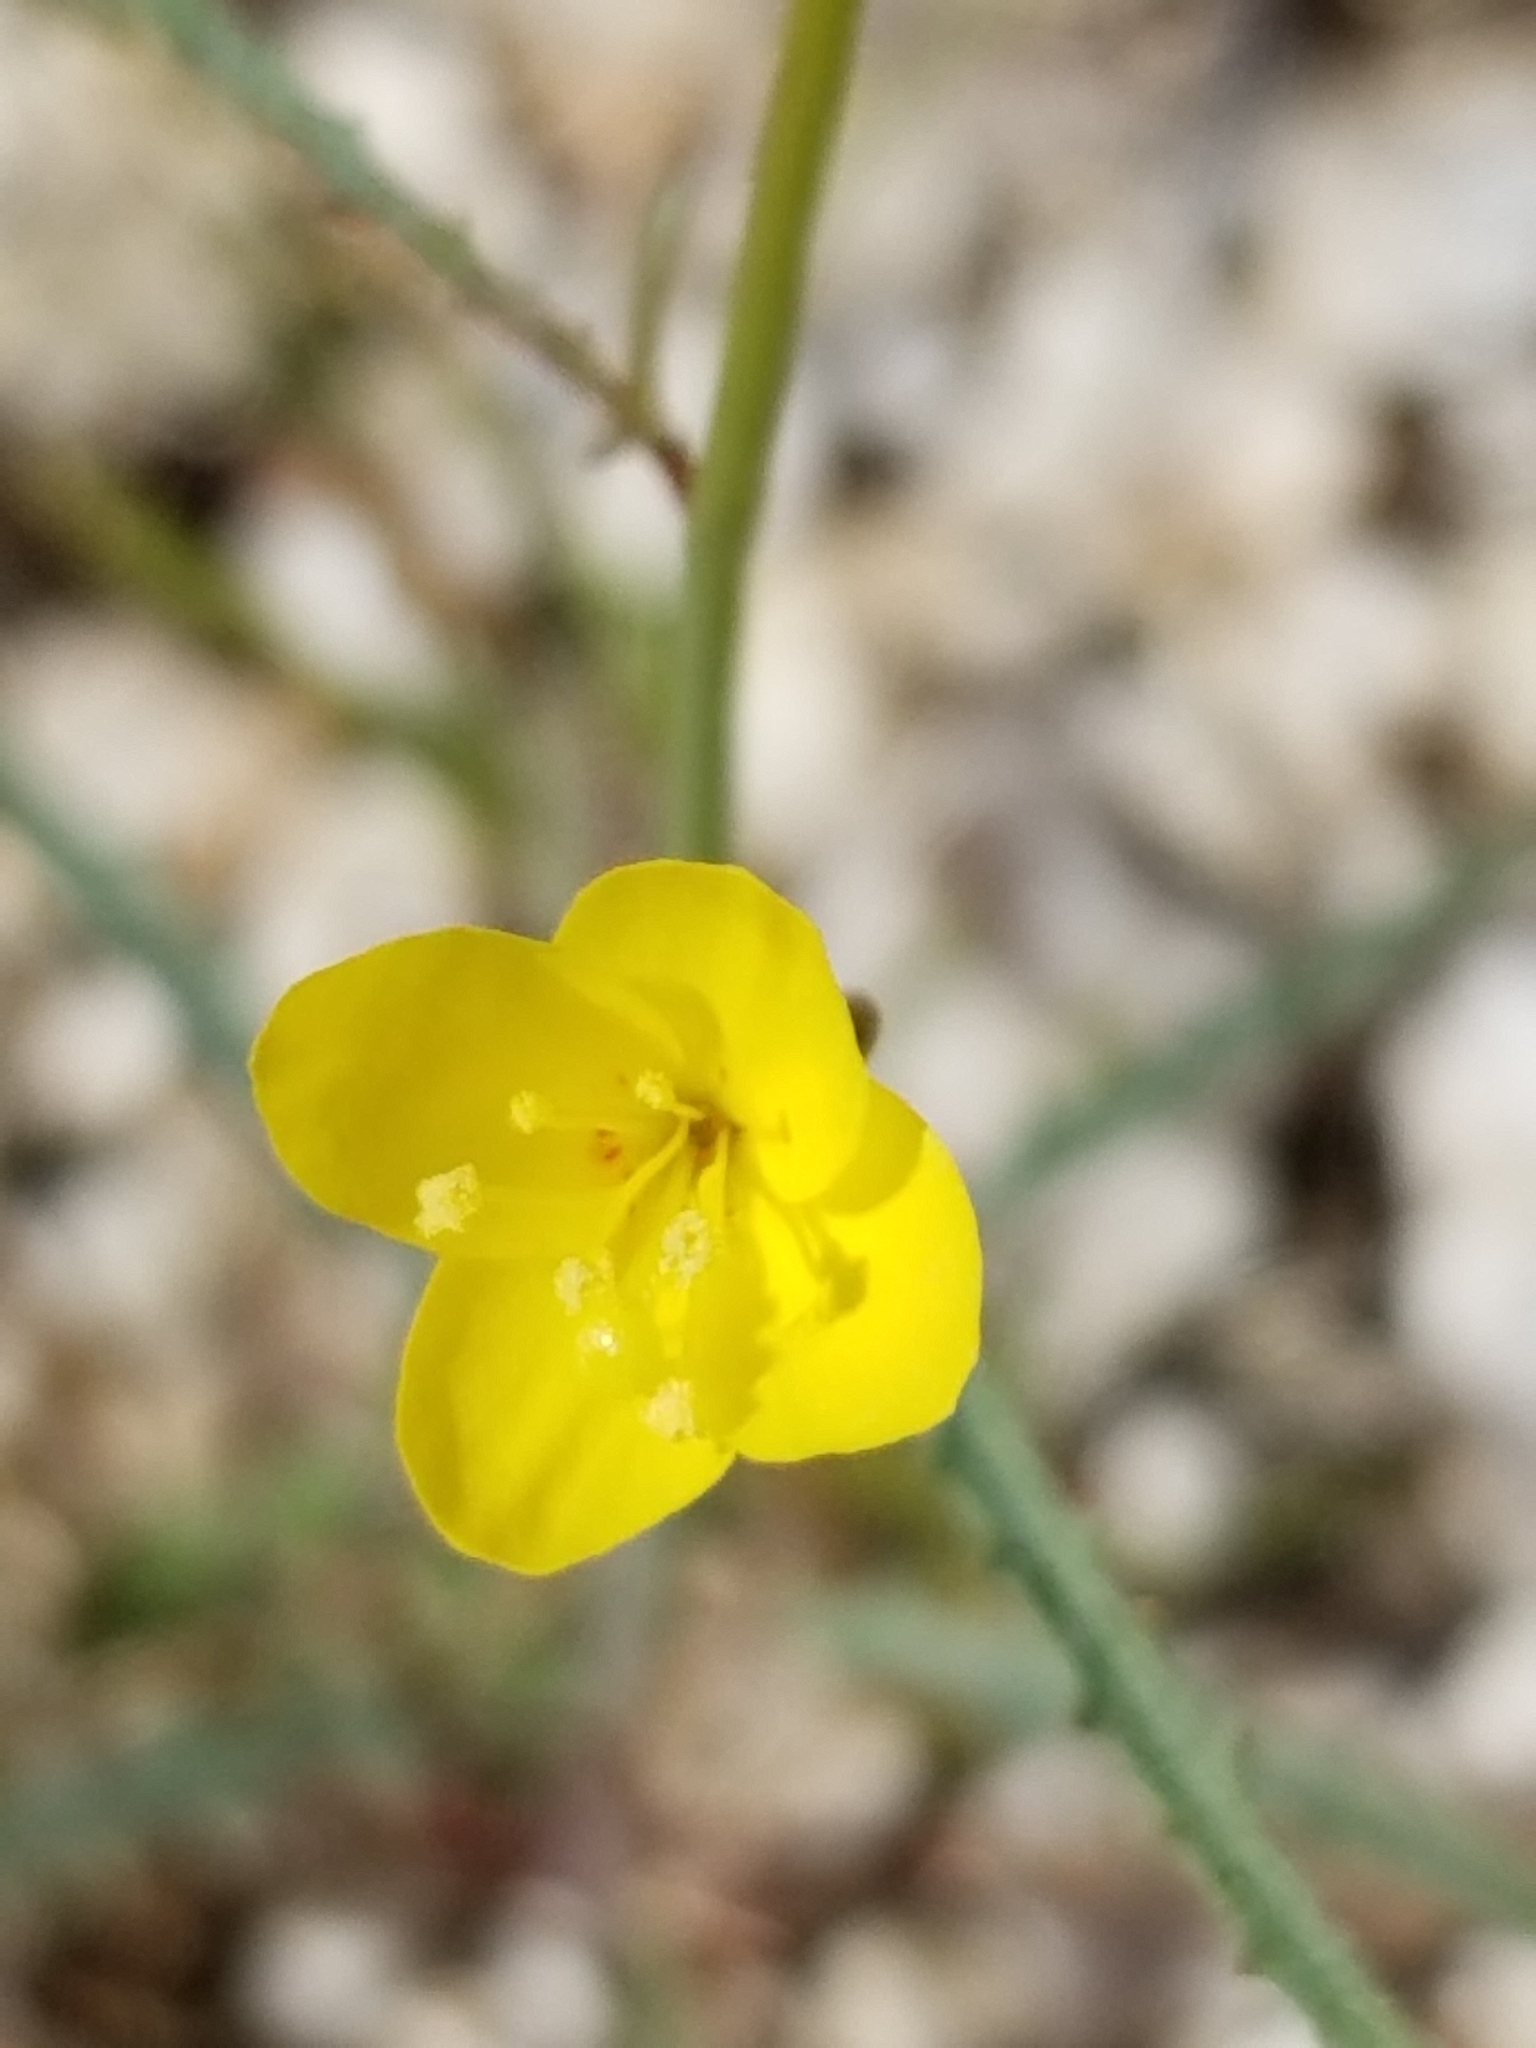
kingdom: Plantae
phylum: Tracheophyta
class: Magnoliopsida
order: Myrtales
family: Onagraceae
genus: Eulobus
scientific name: Eulobus californicus
